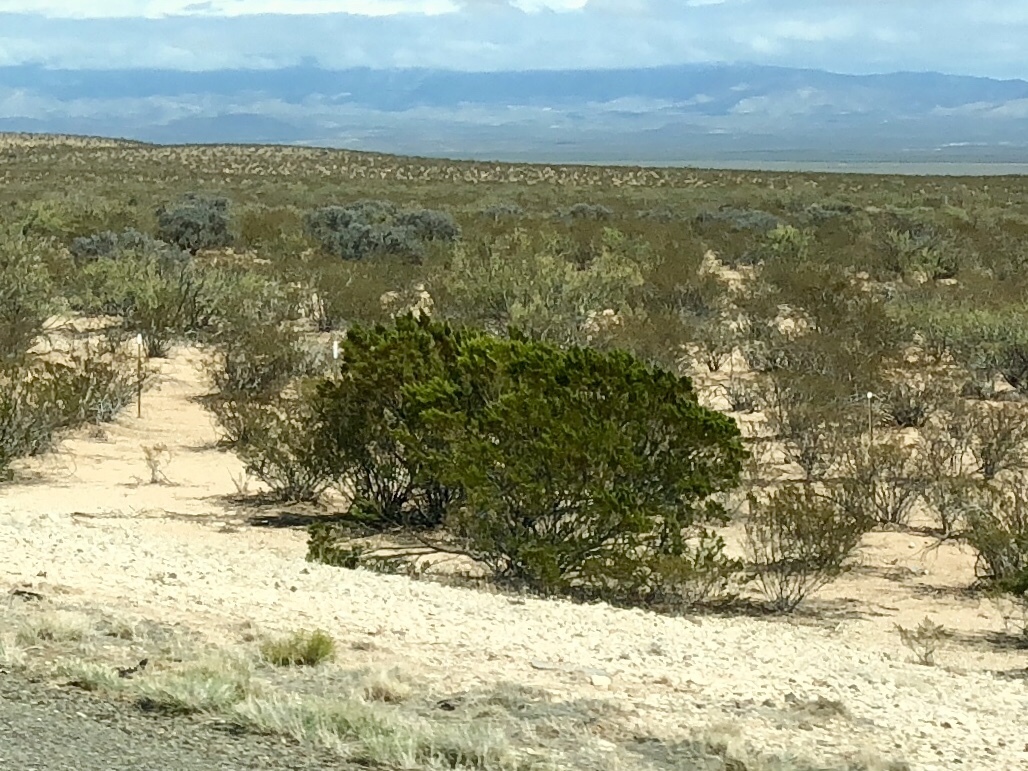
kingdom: Plantae
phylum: Tracheophyta
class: Magnoliopsida
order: Zygophyllales
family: Zygophyllaceae
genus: Larrea
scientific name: Larrea tridentata
